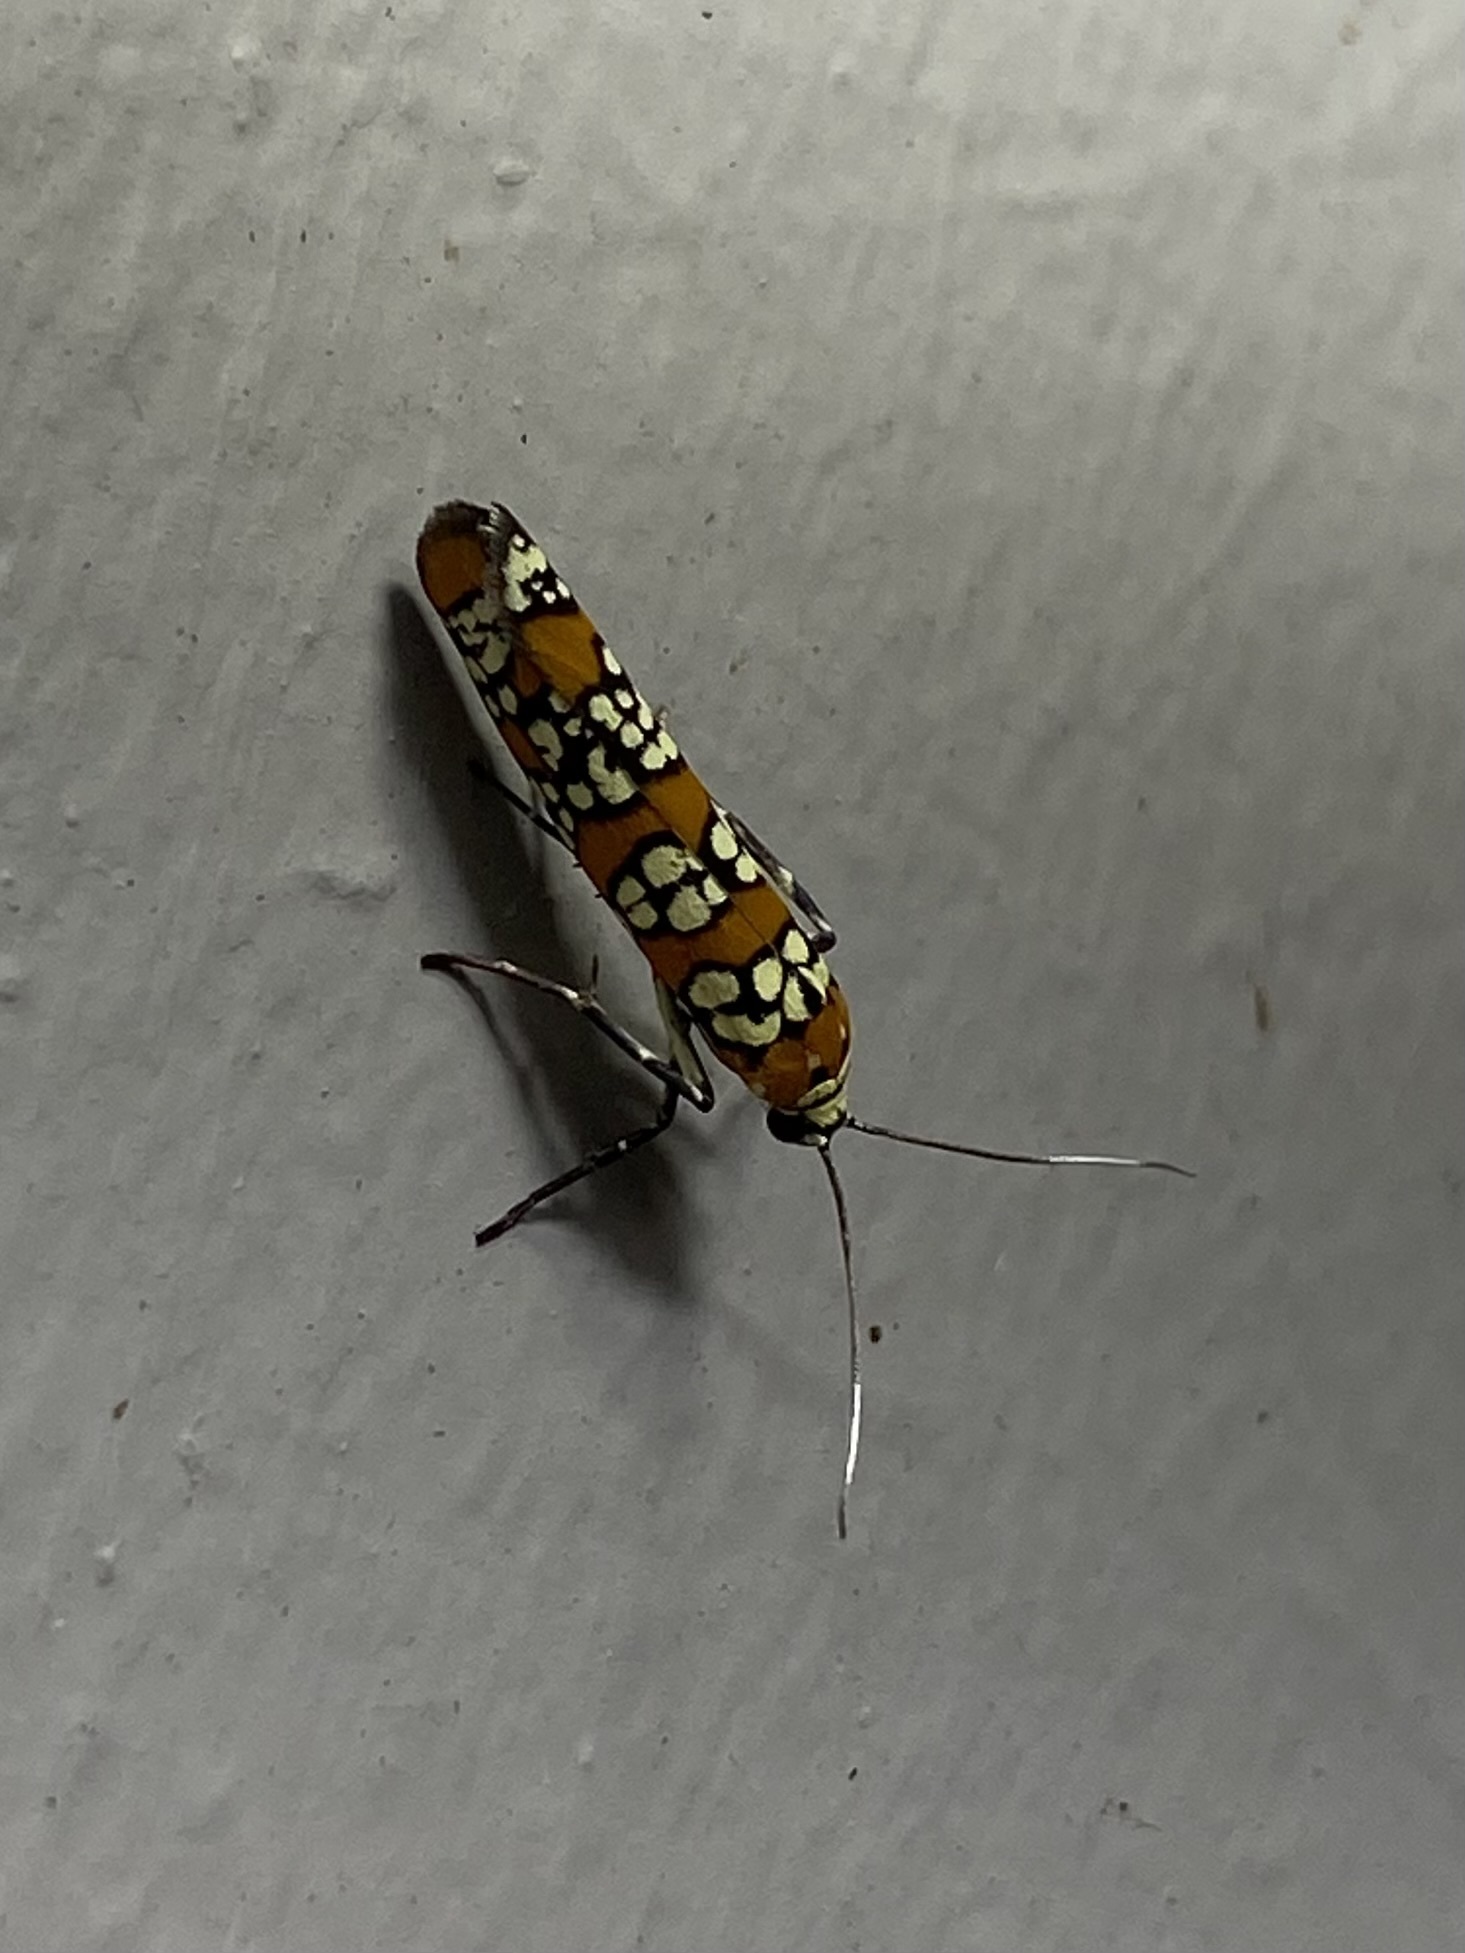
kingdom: Animalia
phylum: Arthropoda
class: Insecta
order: Lepidoptera
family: Attevidae
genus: Atteva
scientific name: Atteva punctella
